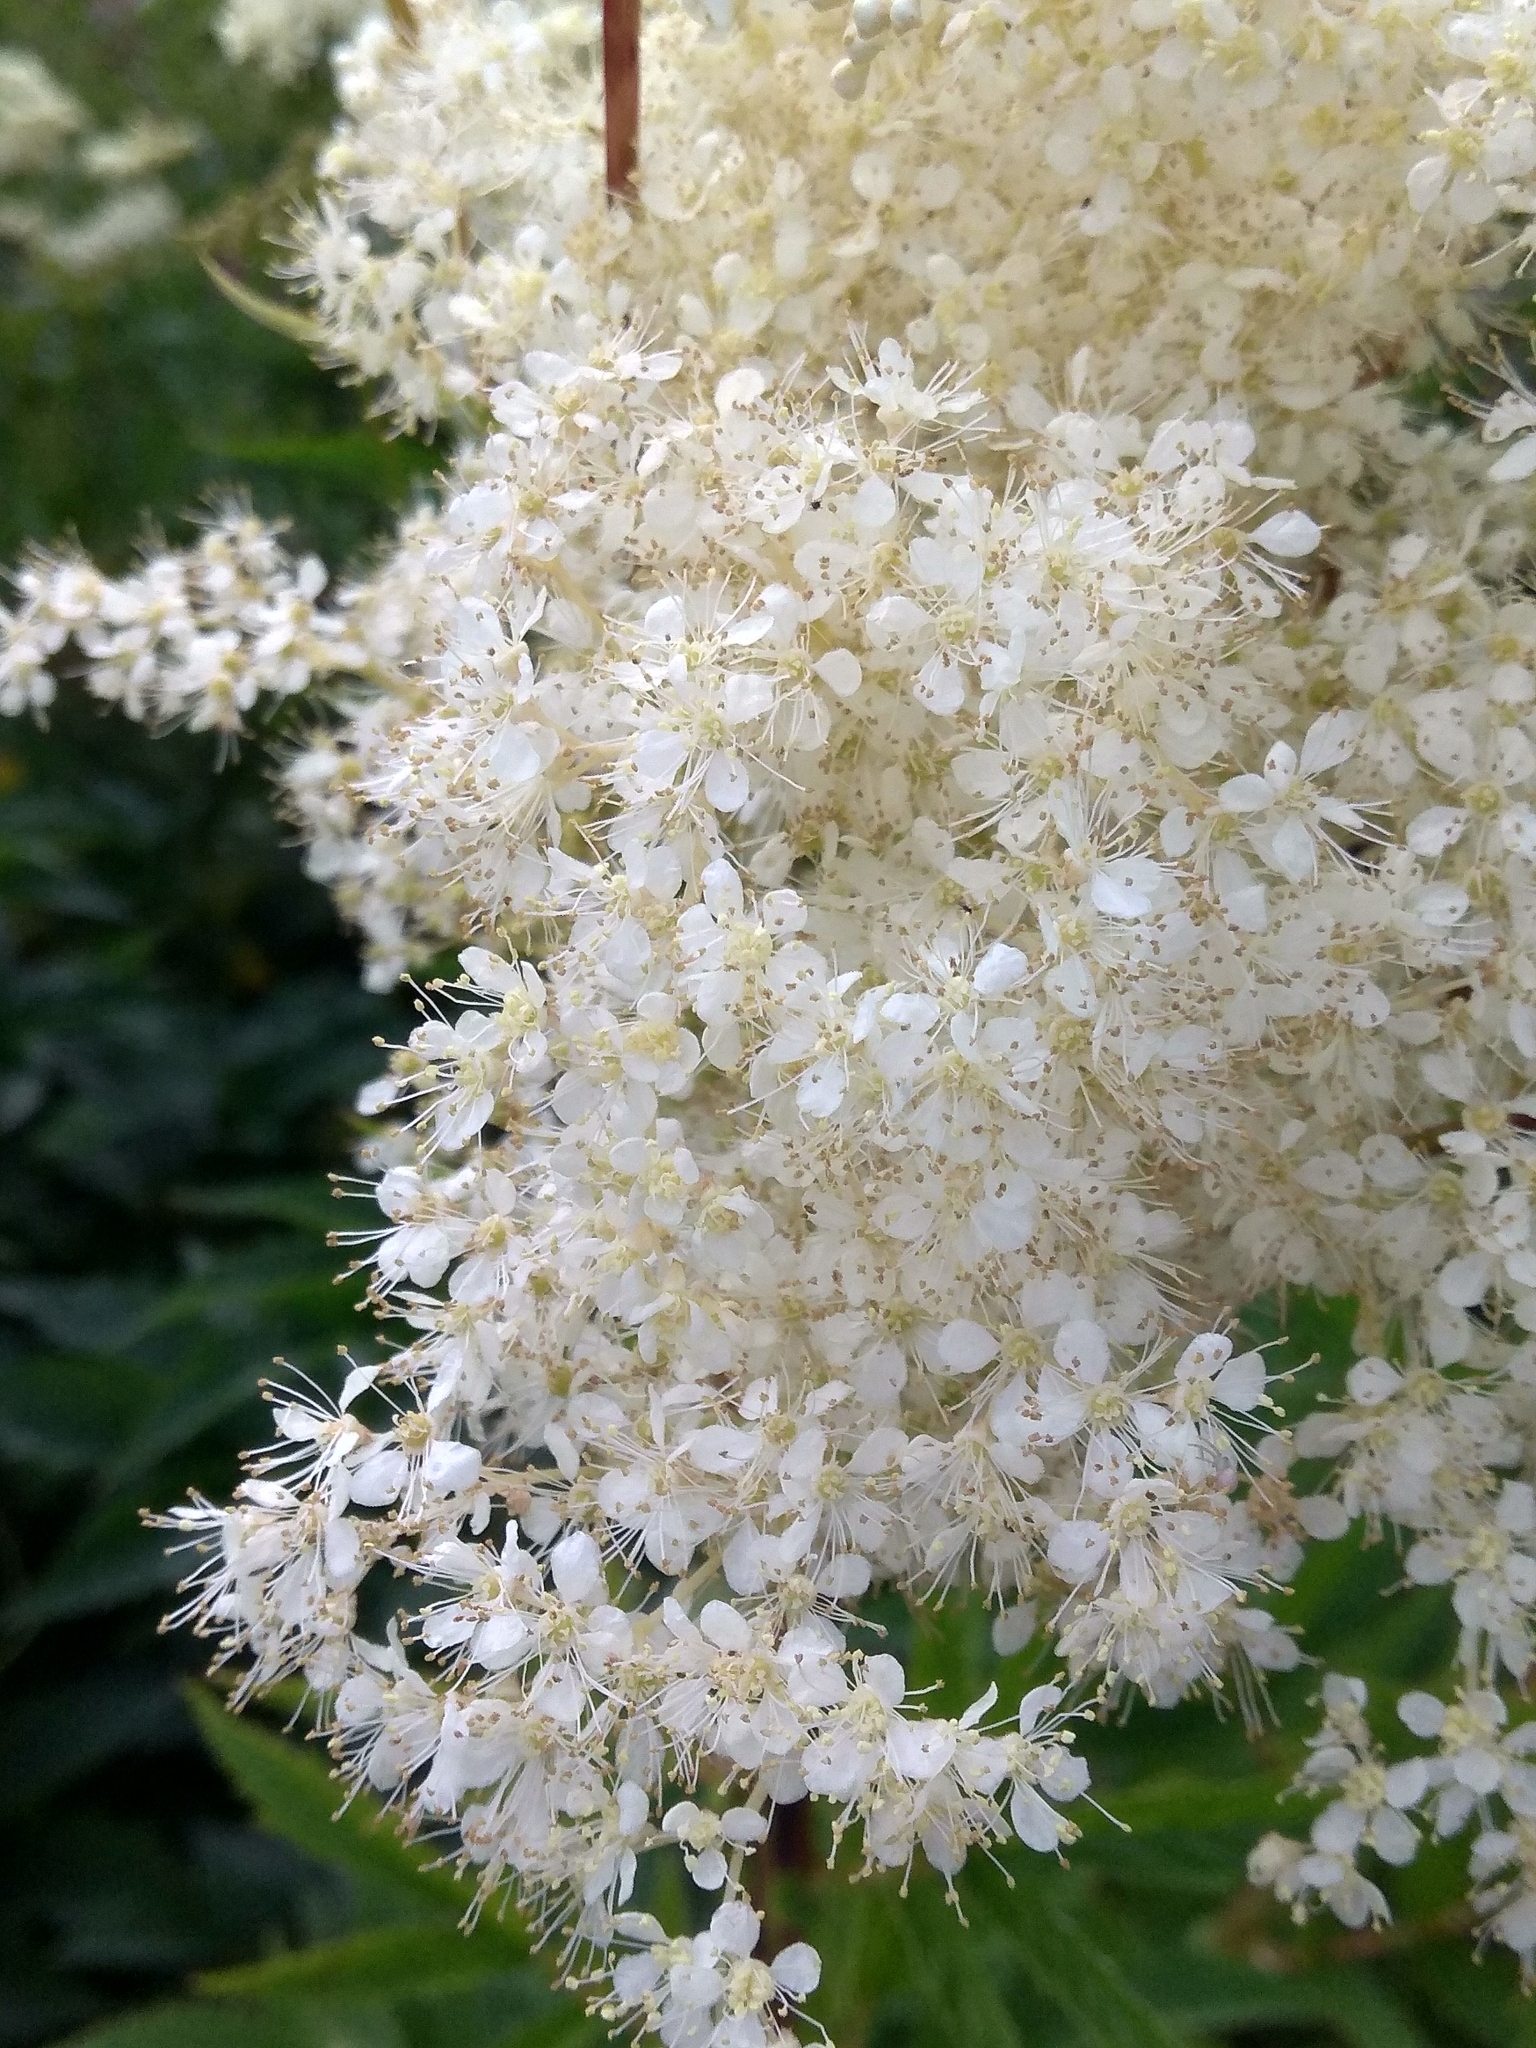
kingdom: Plantae
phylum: Tracheophyta
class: Magnoliopsida
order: Rosales
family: Rosaceae
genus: Filipendula
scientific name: Filipendula ulmaria
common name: Meadowsweet
